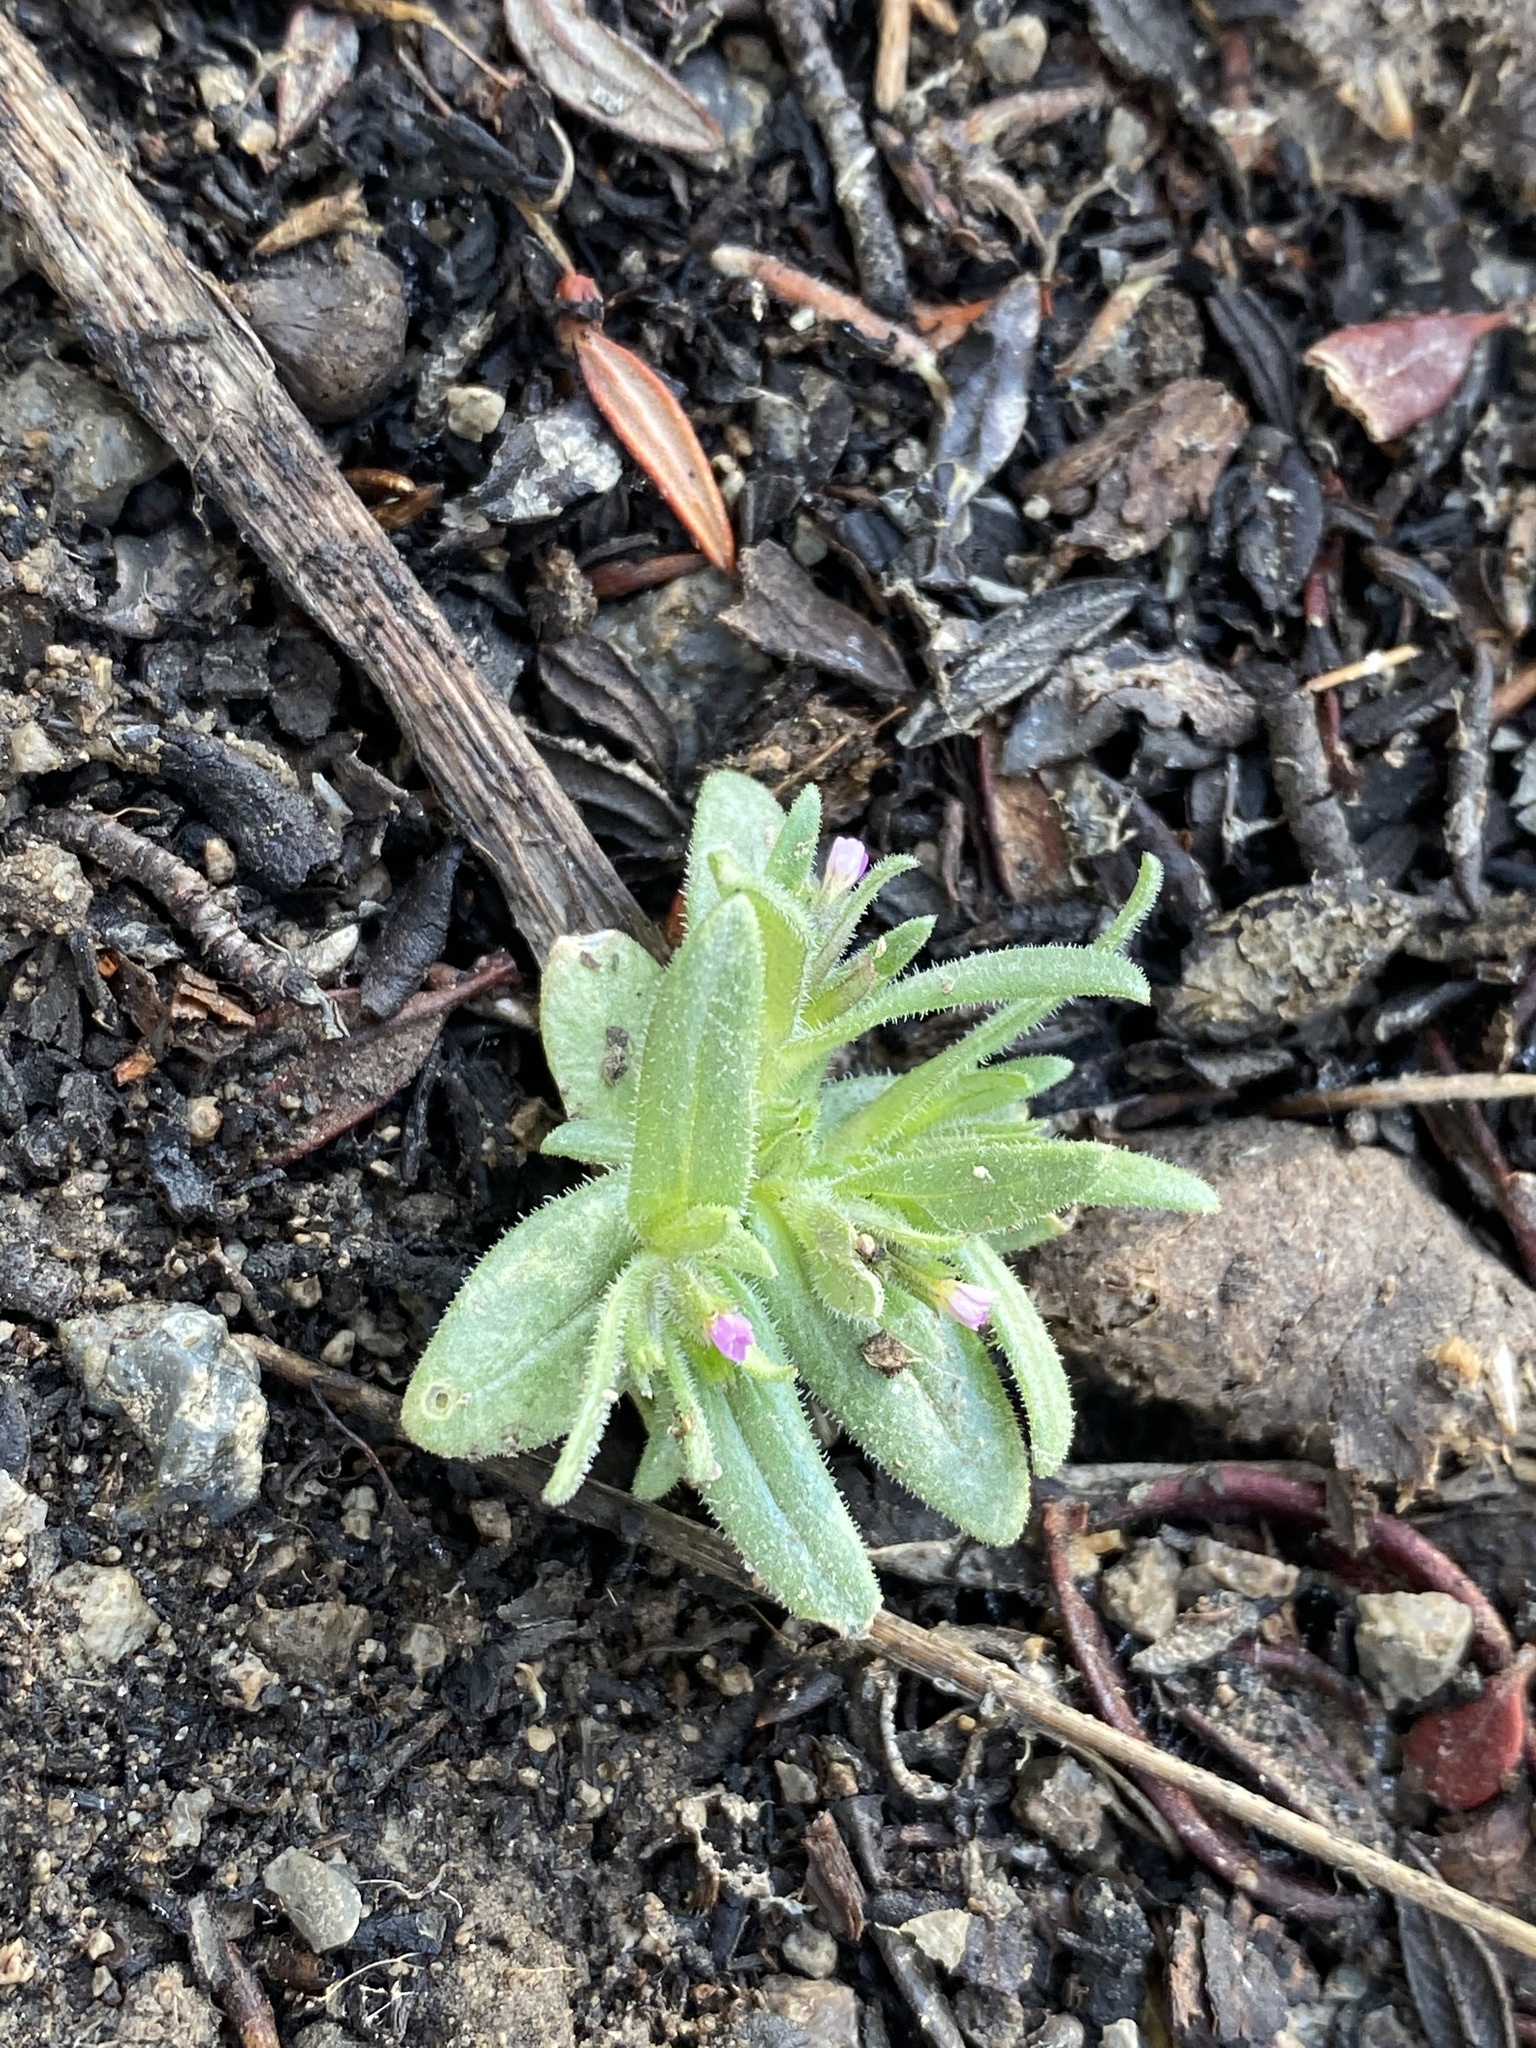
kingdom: Plantae
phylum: Tracheophyta
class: Magnoliopsida
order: Ericales
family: Polemoniaceae
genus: Phlox
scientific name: Phlox gracilis
